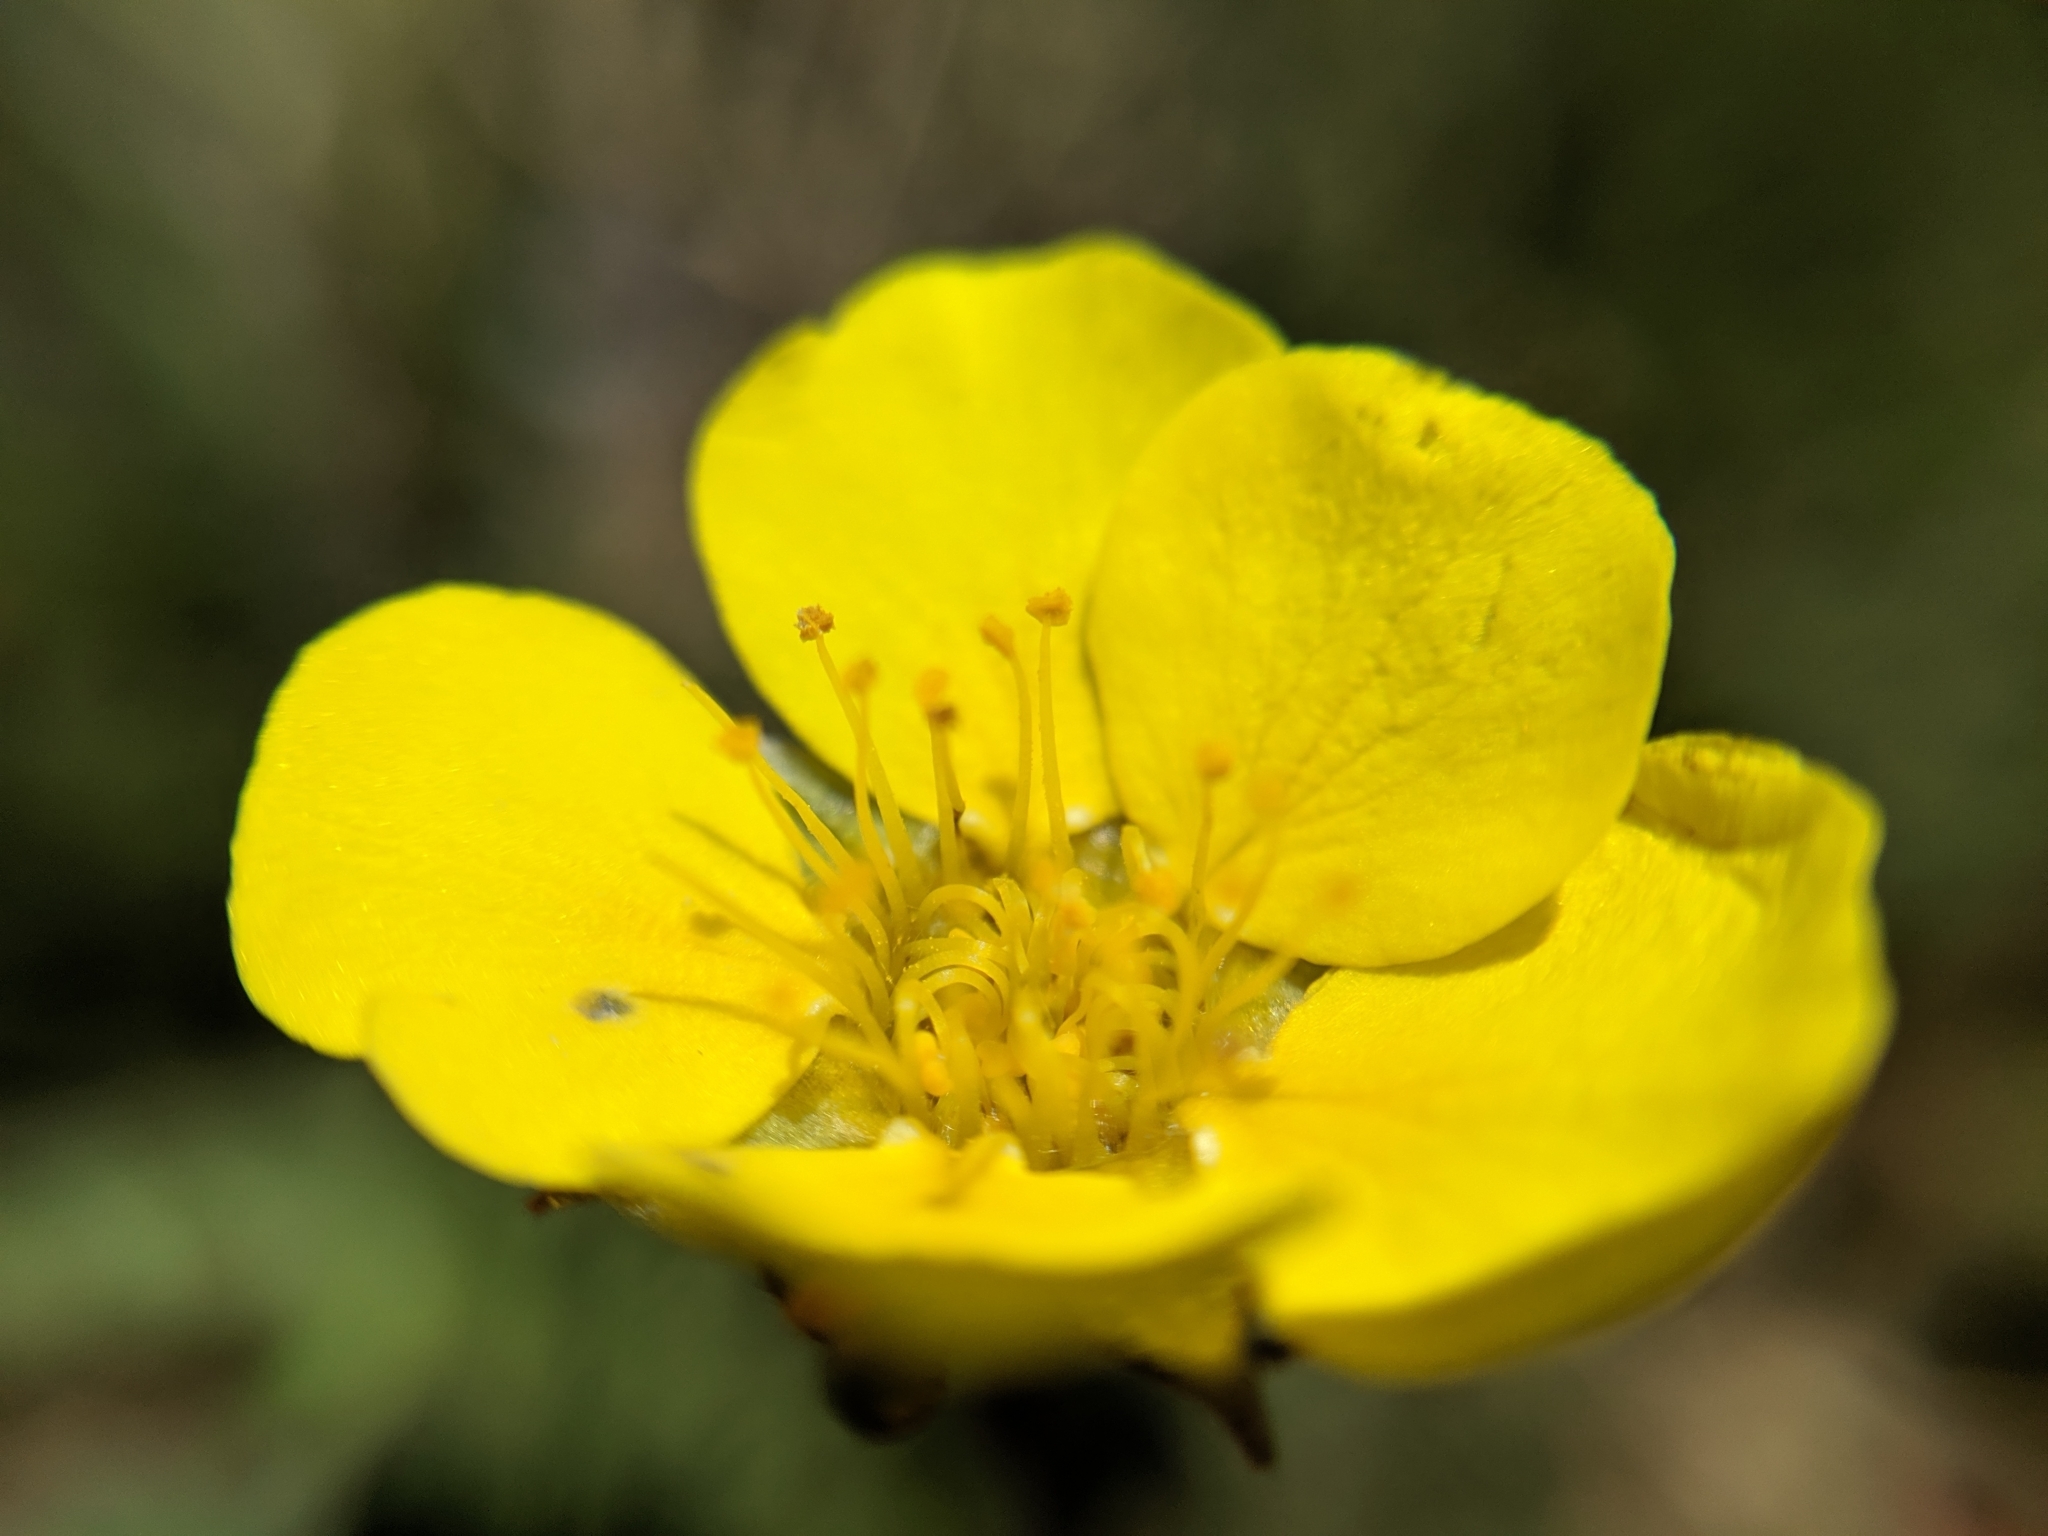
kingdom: Plantae
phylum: Tracheophyta
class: Magnoliopsida
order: Rosales
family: Rosaceae
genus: Geum
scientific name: Geum rossii
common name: Alpine avens
